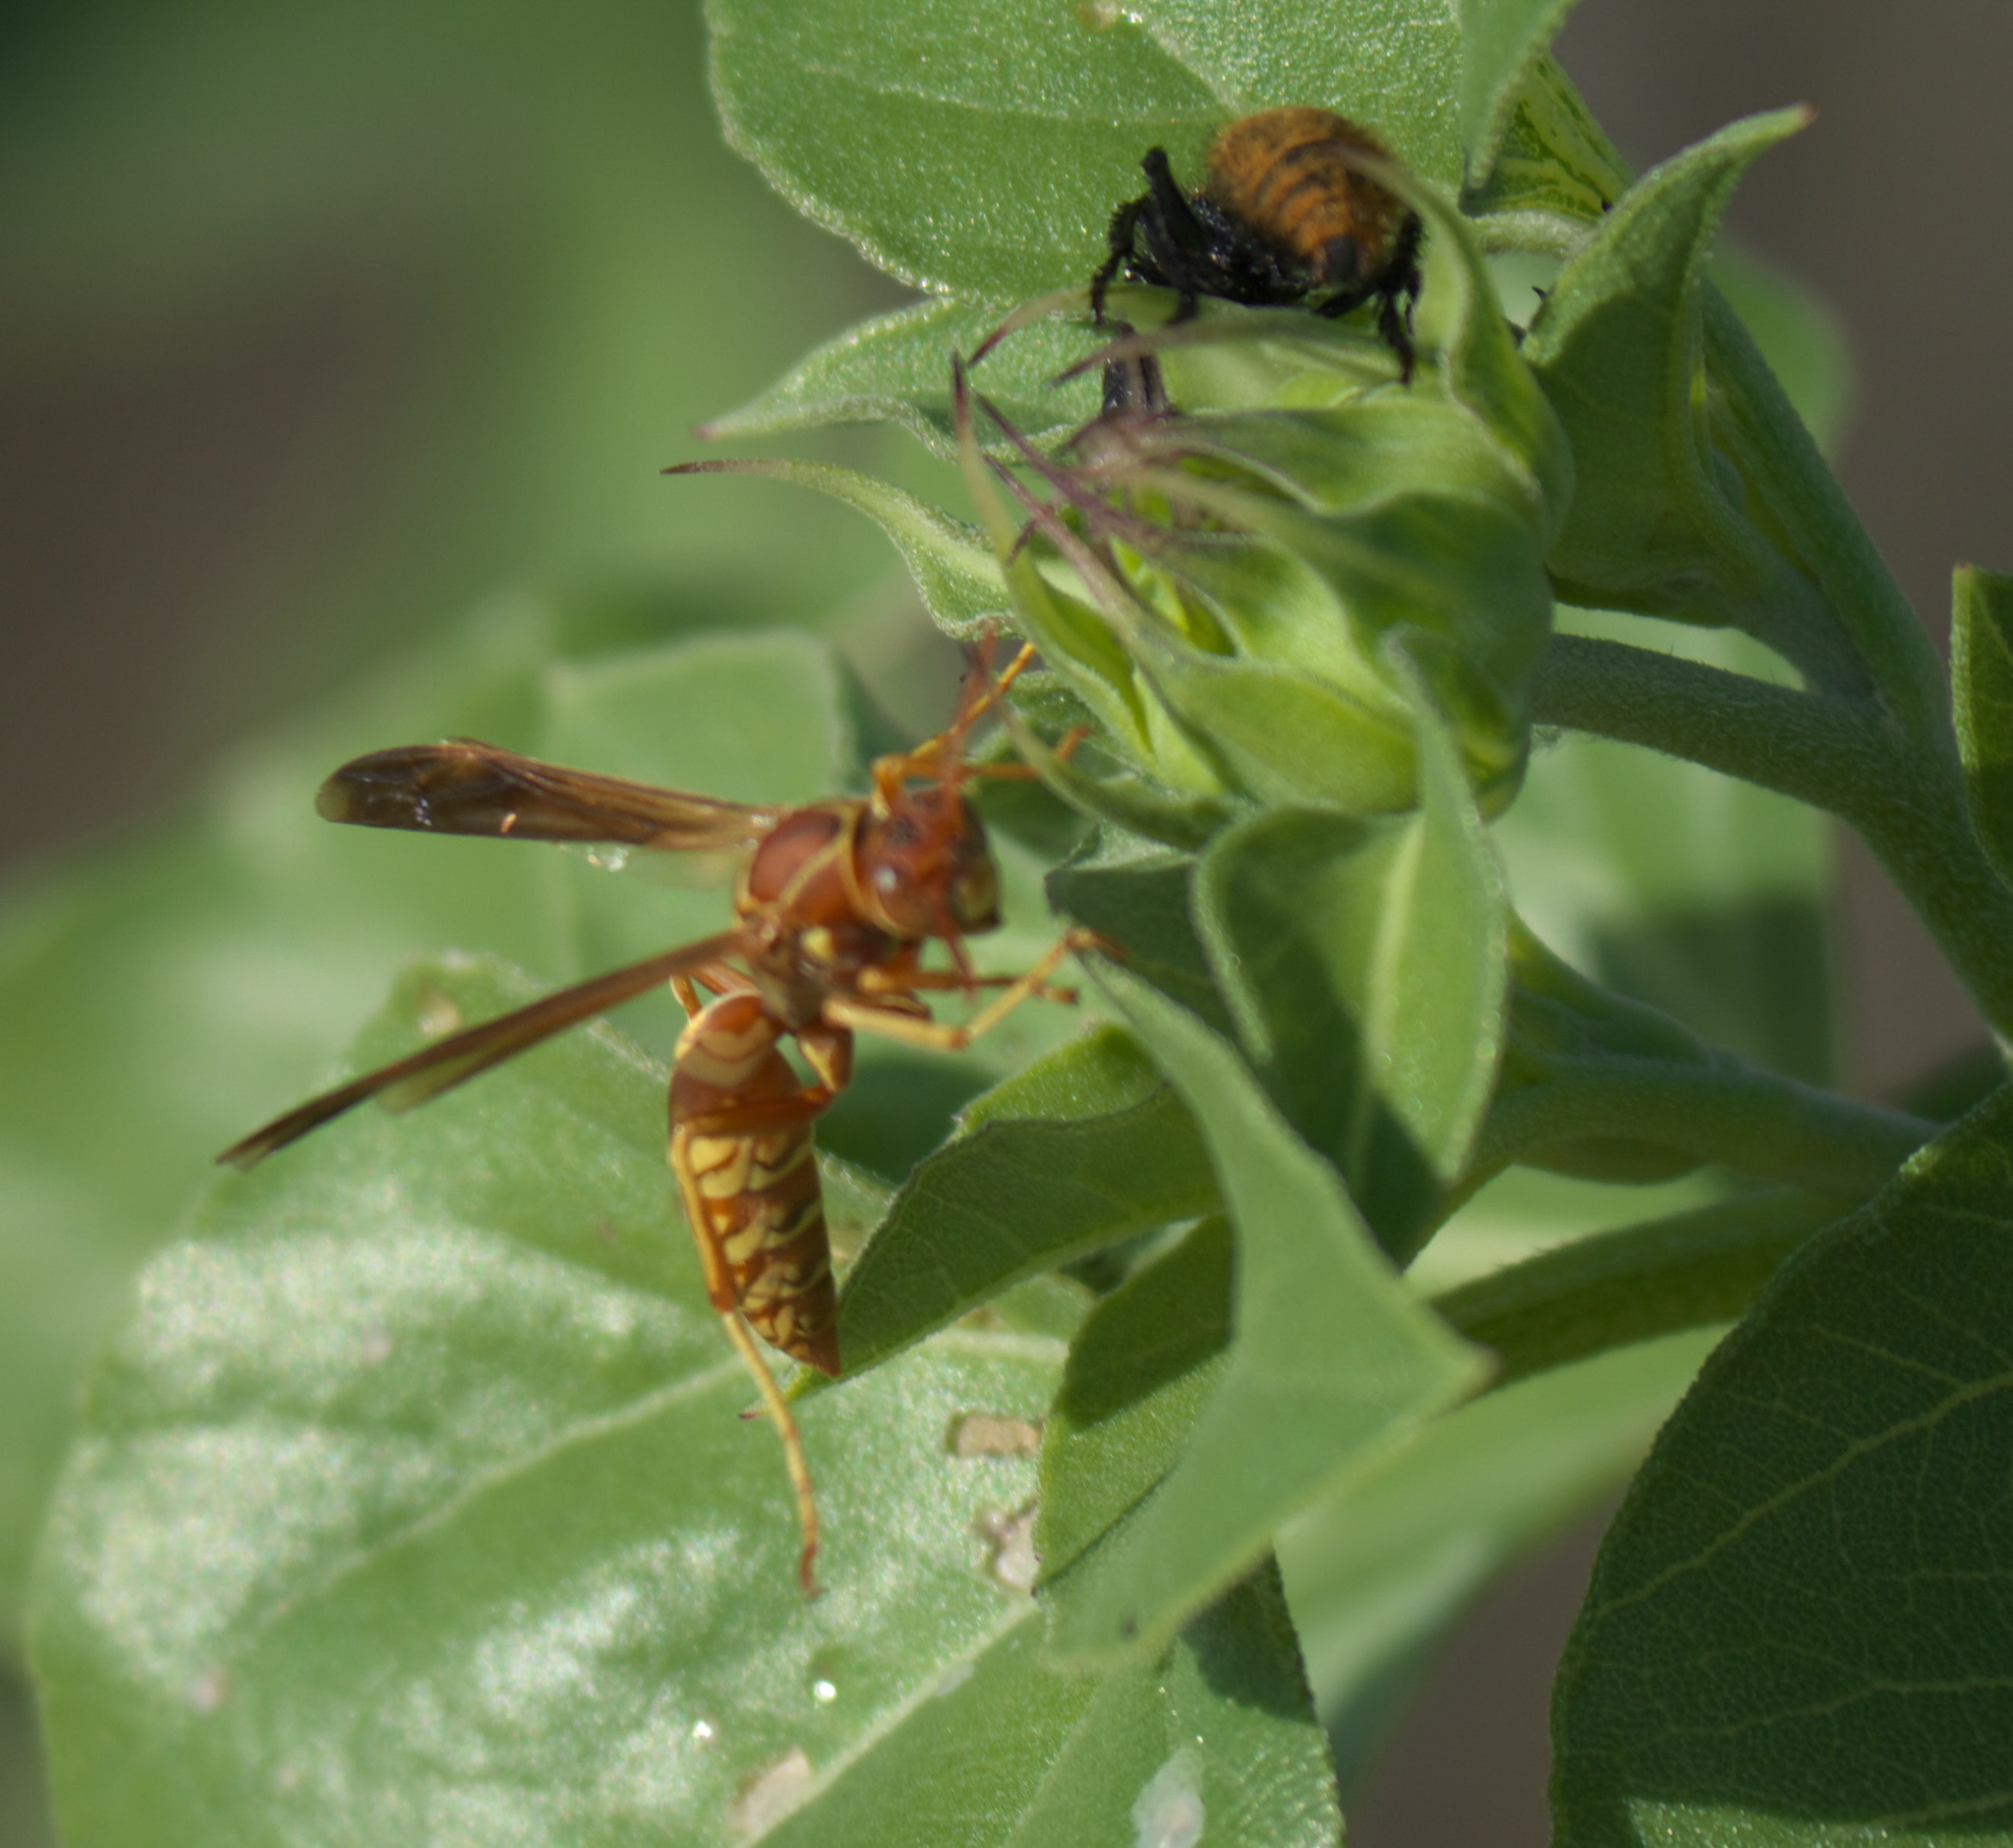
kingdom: Animalia
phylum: Arthropoda
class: Insecta
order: Hymenoptera
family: Eumenidae
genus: Polistes
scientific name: Polistes apachus
